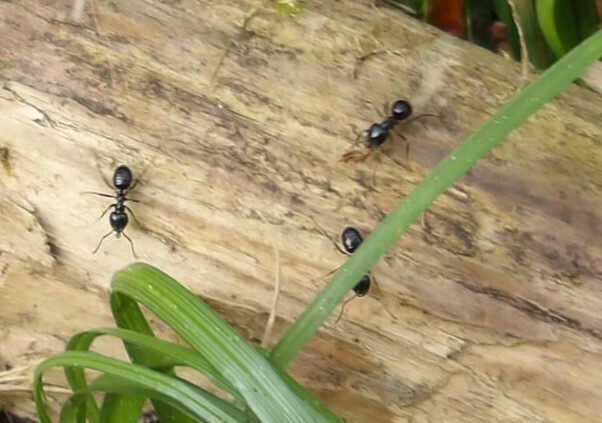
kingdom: Animalia
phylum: Arthropoda
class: Insecta
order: Hymenoptera
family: Formicidae
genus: Lasius
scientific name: Lasius fuliginosus
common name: Jet ant
